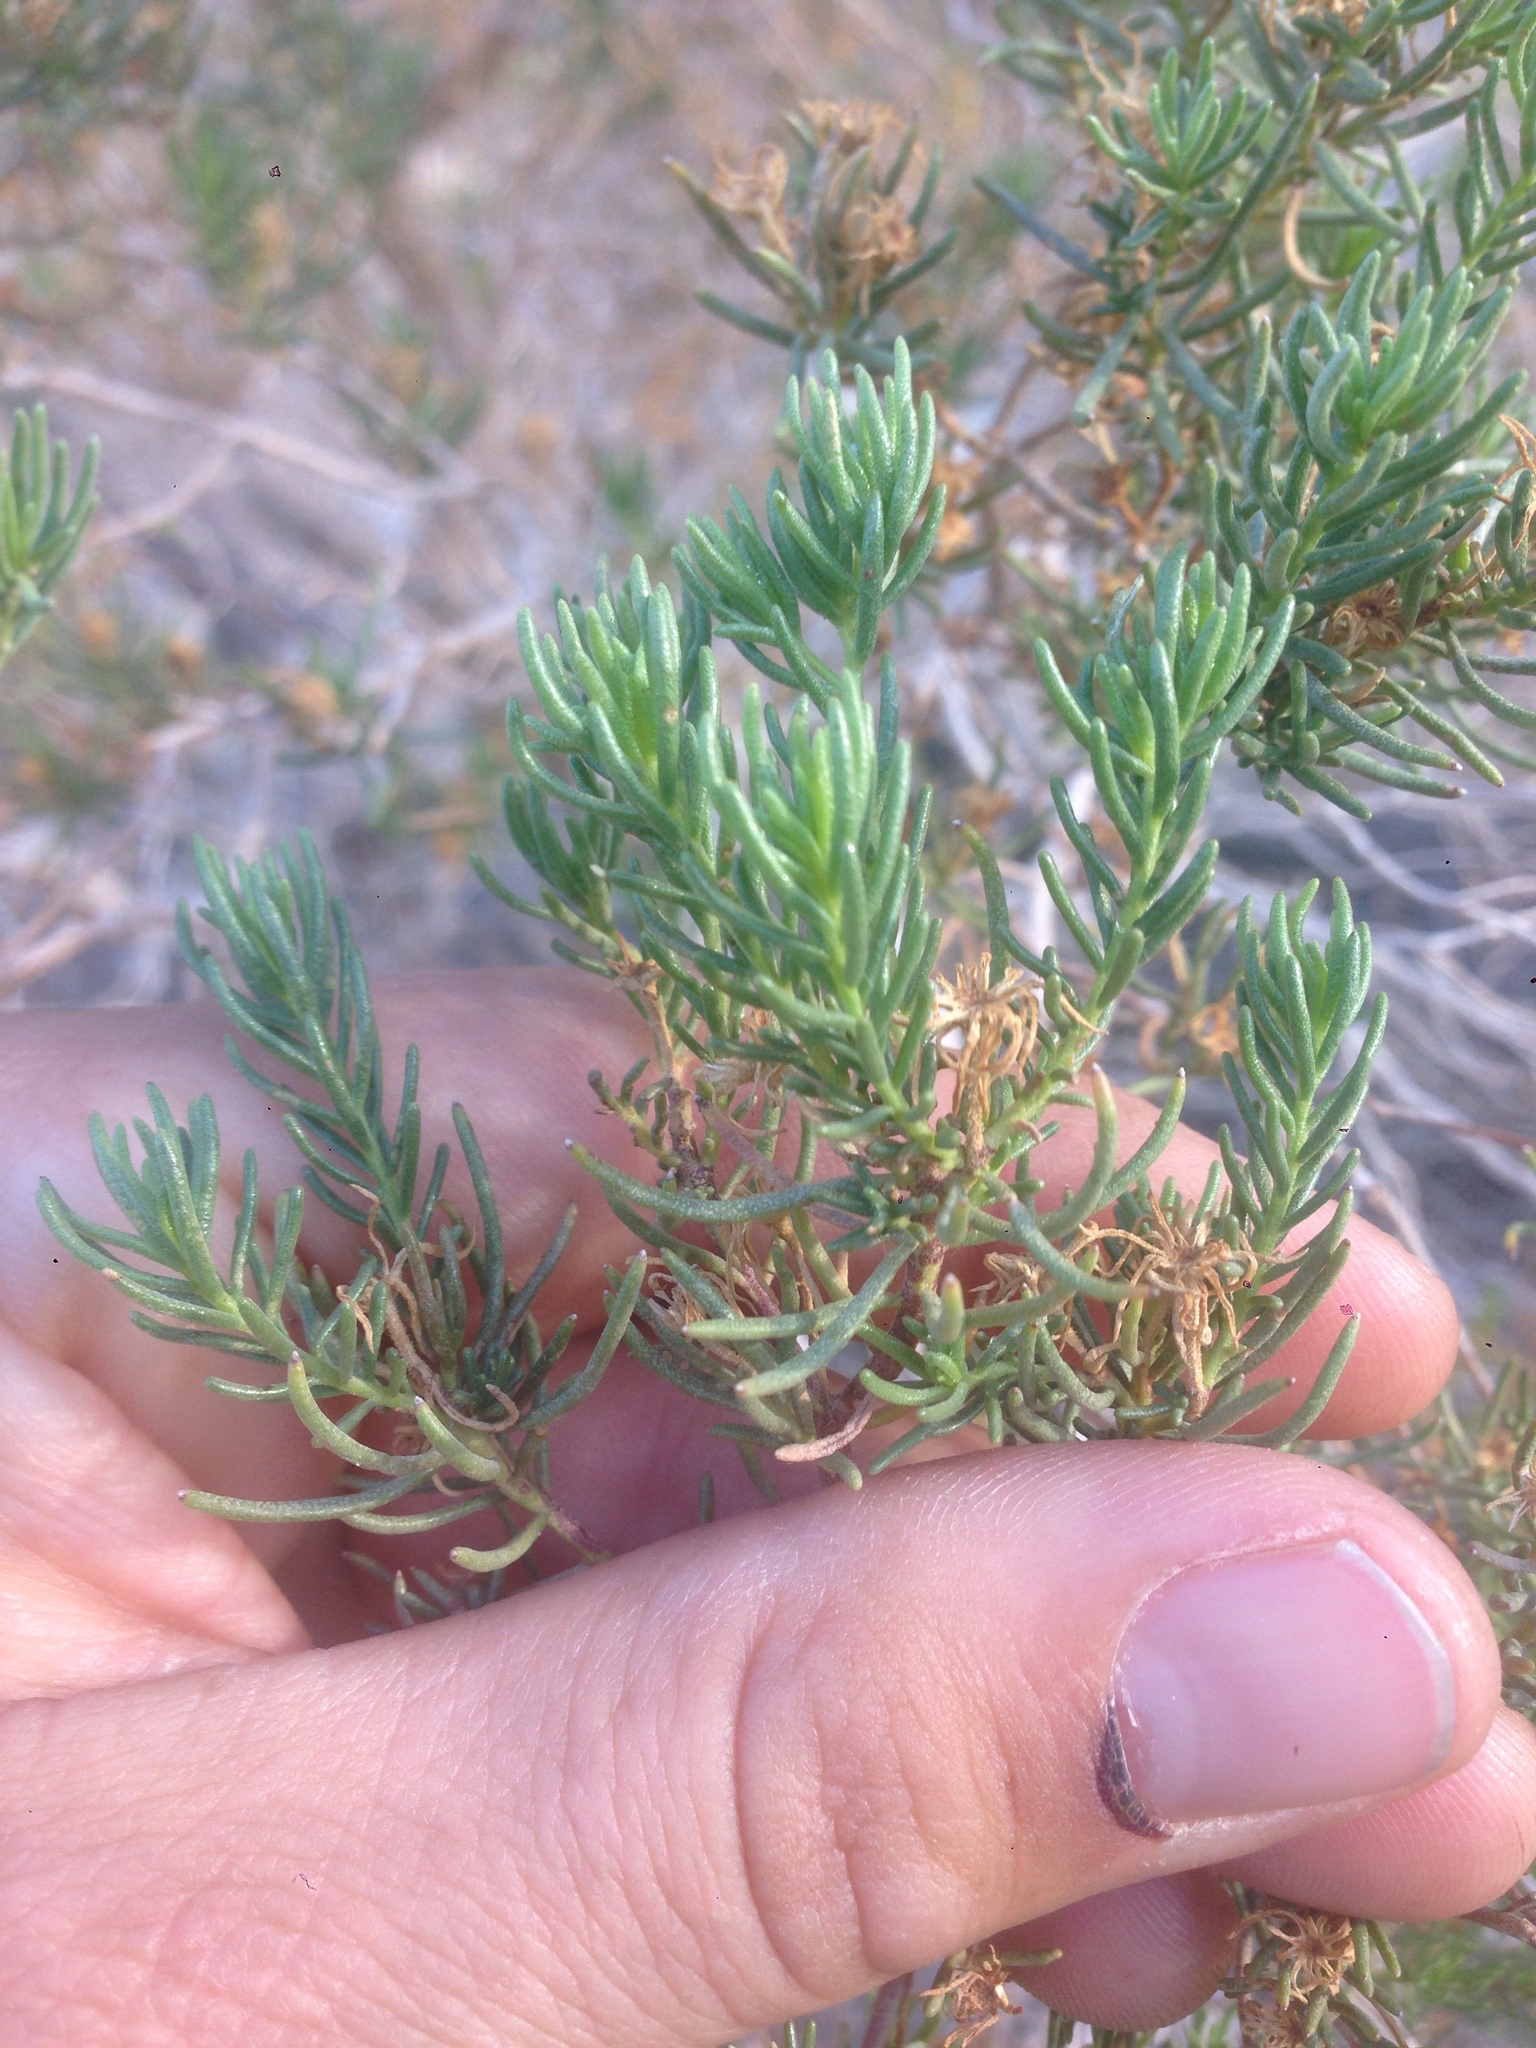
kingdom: Plantae
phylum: Tracheophyta
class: Magnoliopsida
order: Asterales
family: Asteraceae
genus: Peucephyllum
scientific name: Peucephyllum schottii
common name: Pygmy-cedar
